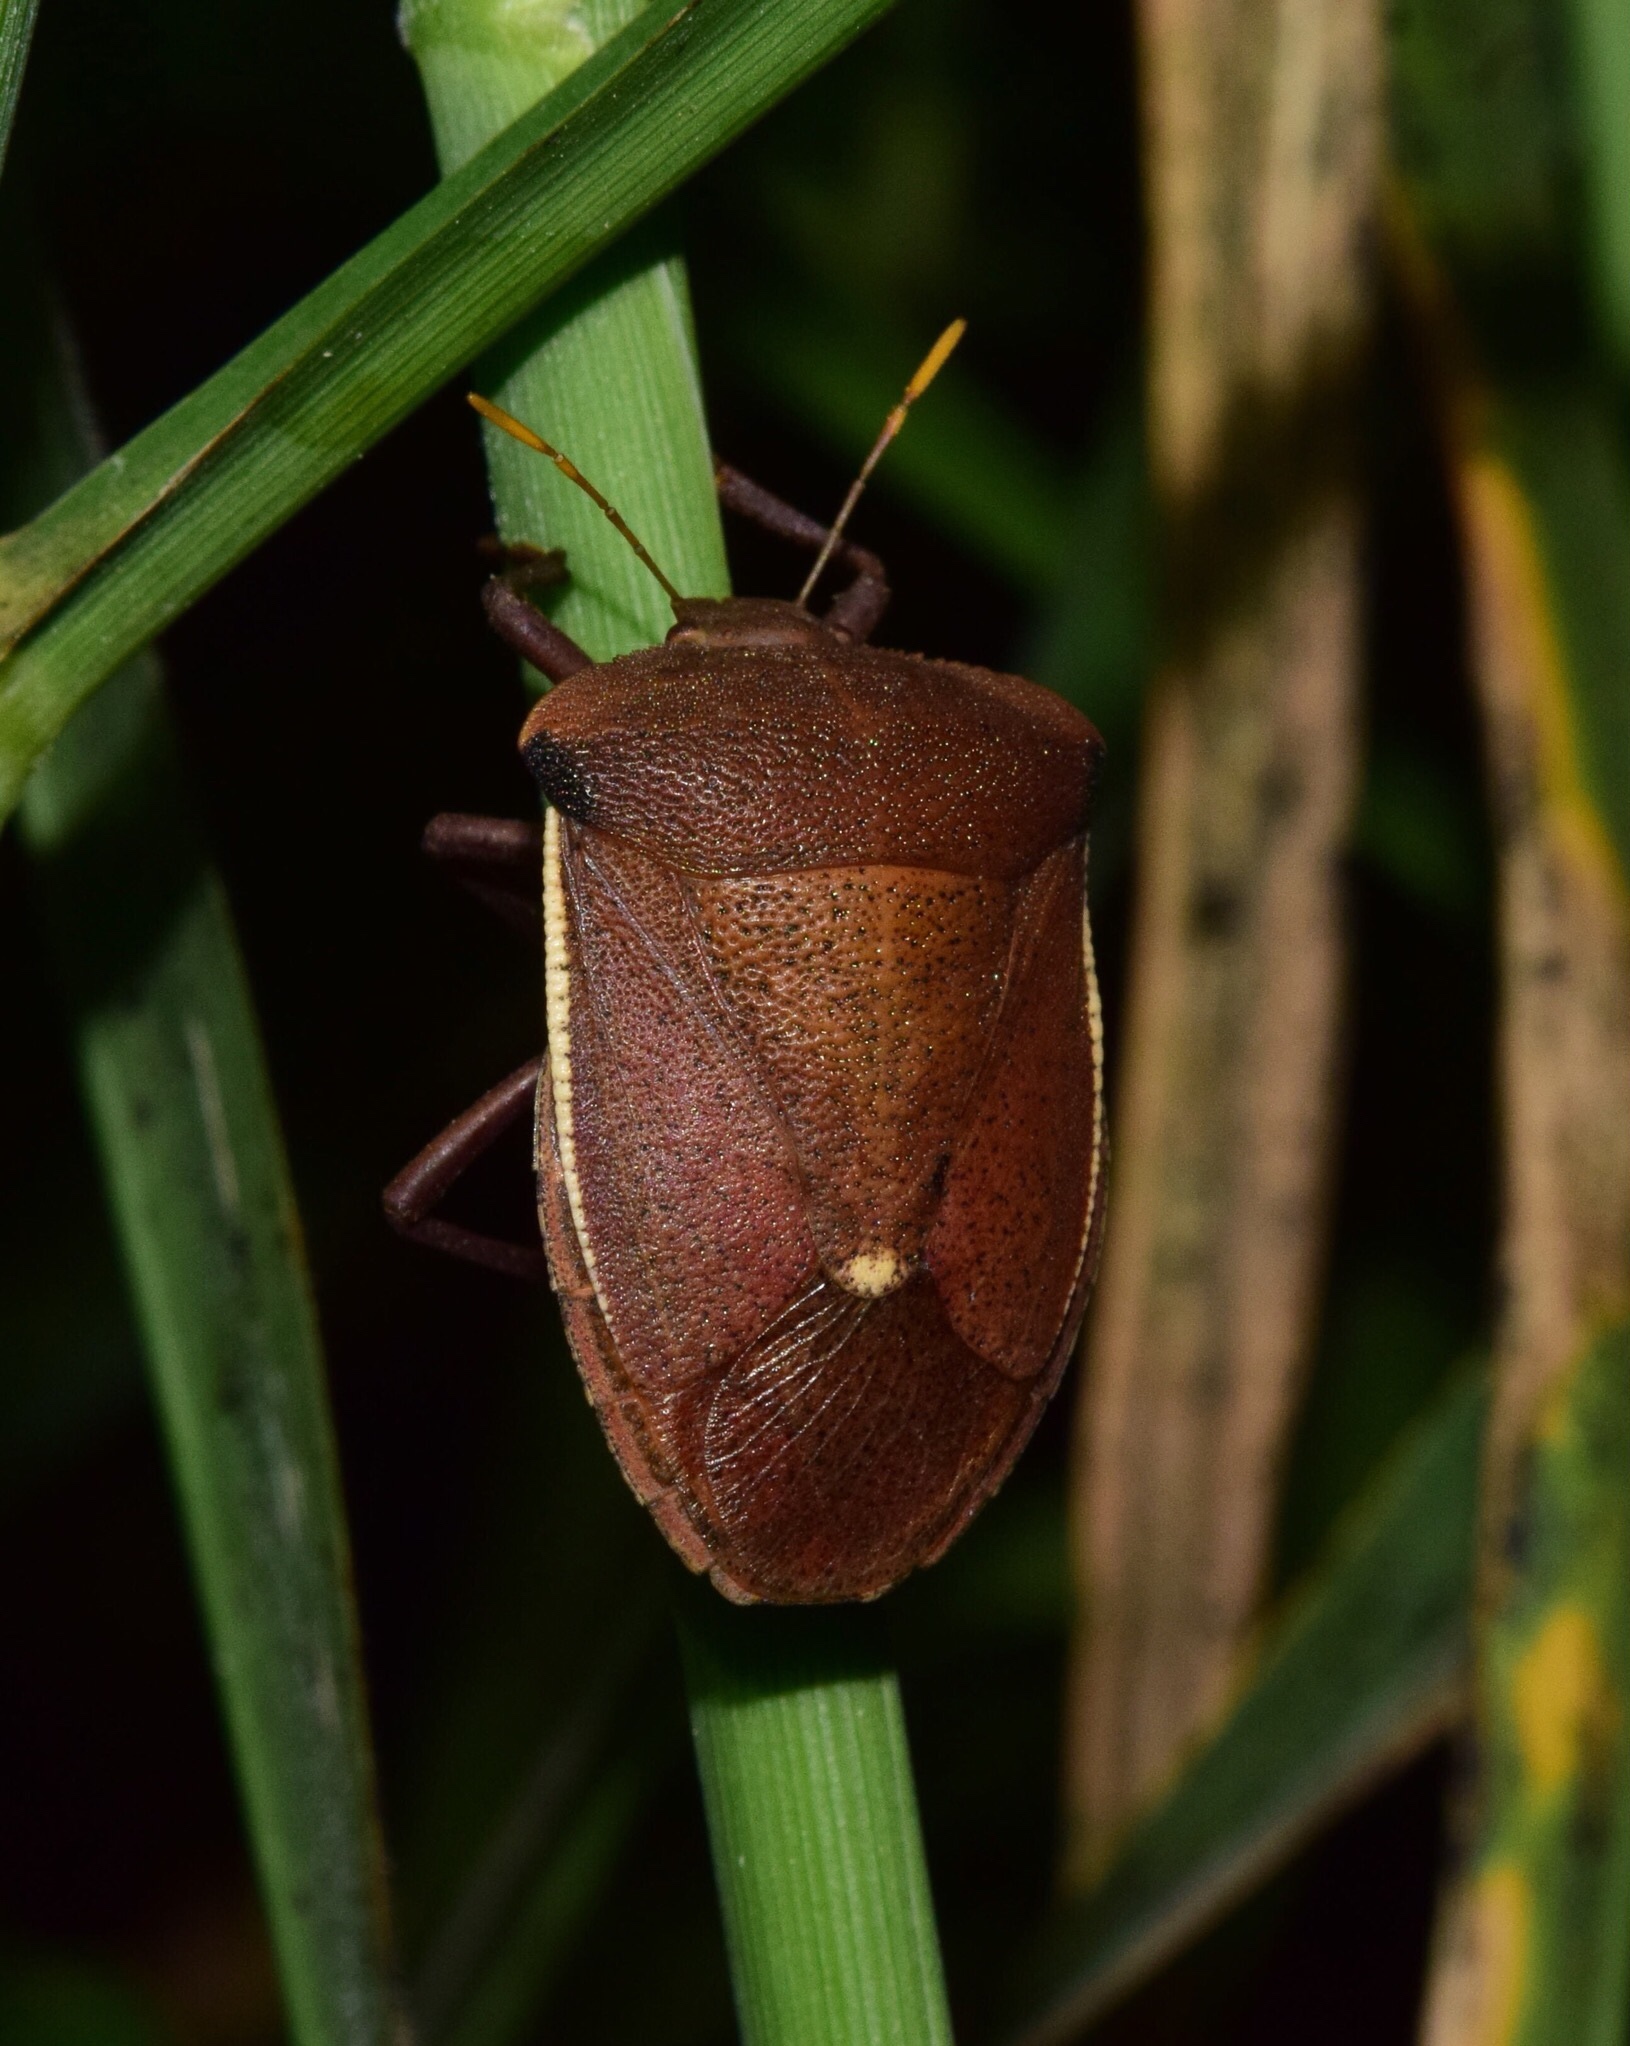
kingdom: Animalia
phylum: Arthropoda
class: Insecta
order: Hemiptera
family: Pentatomidae
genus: Basicryptus
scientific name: Basicryptus costalis
